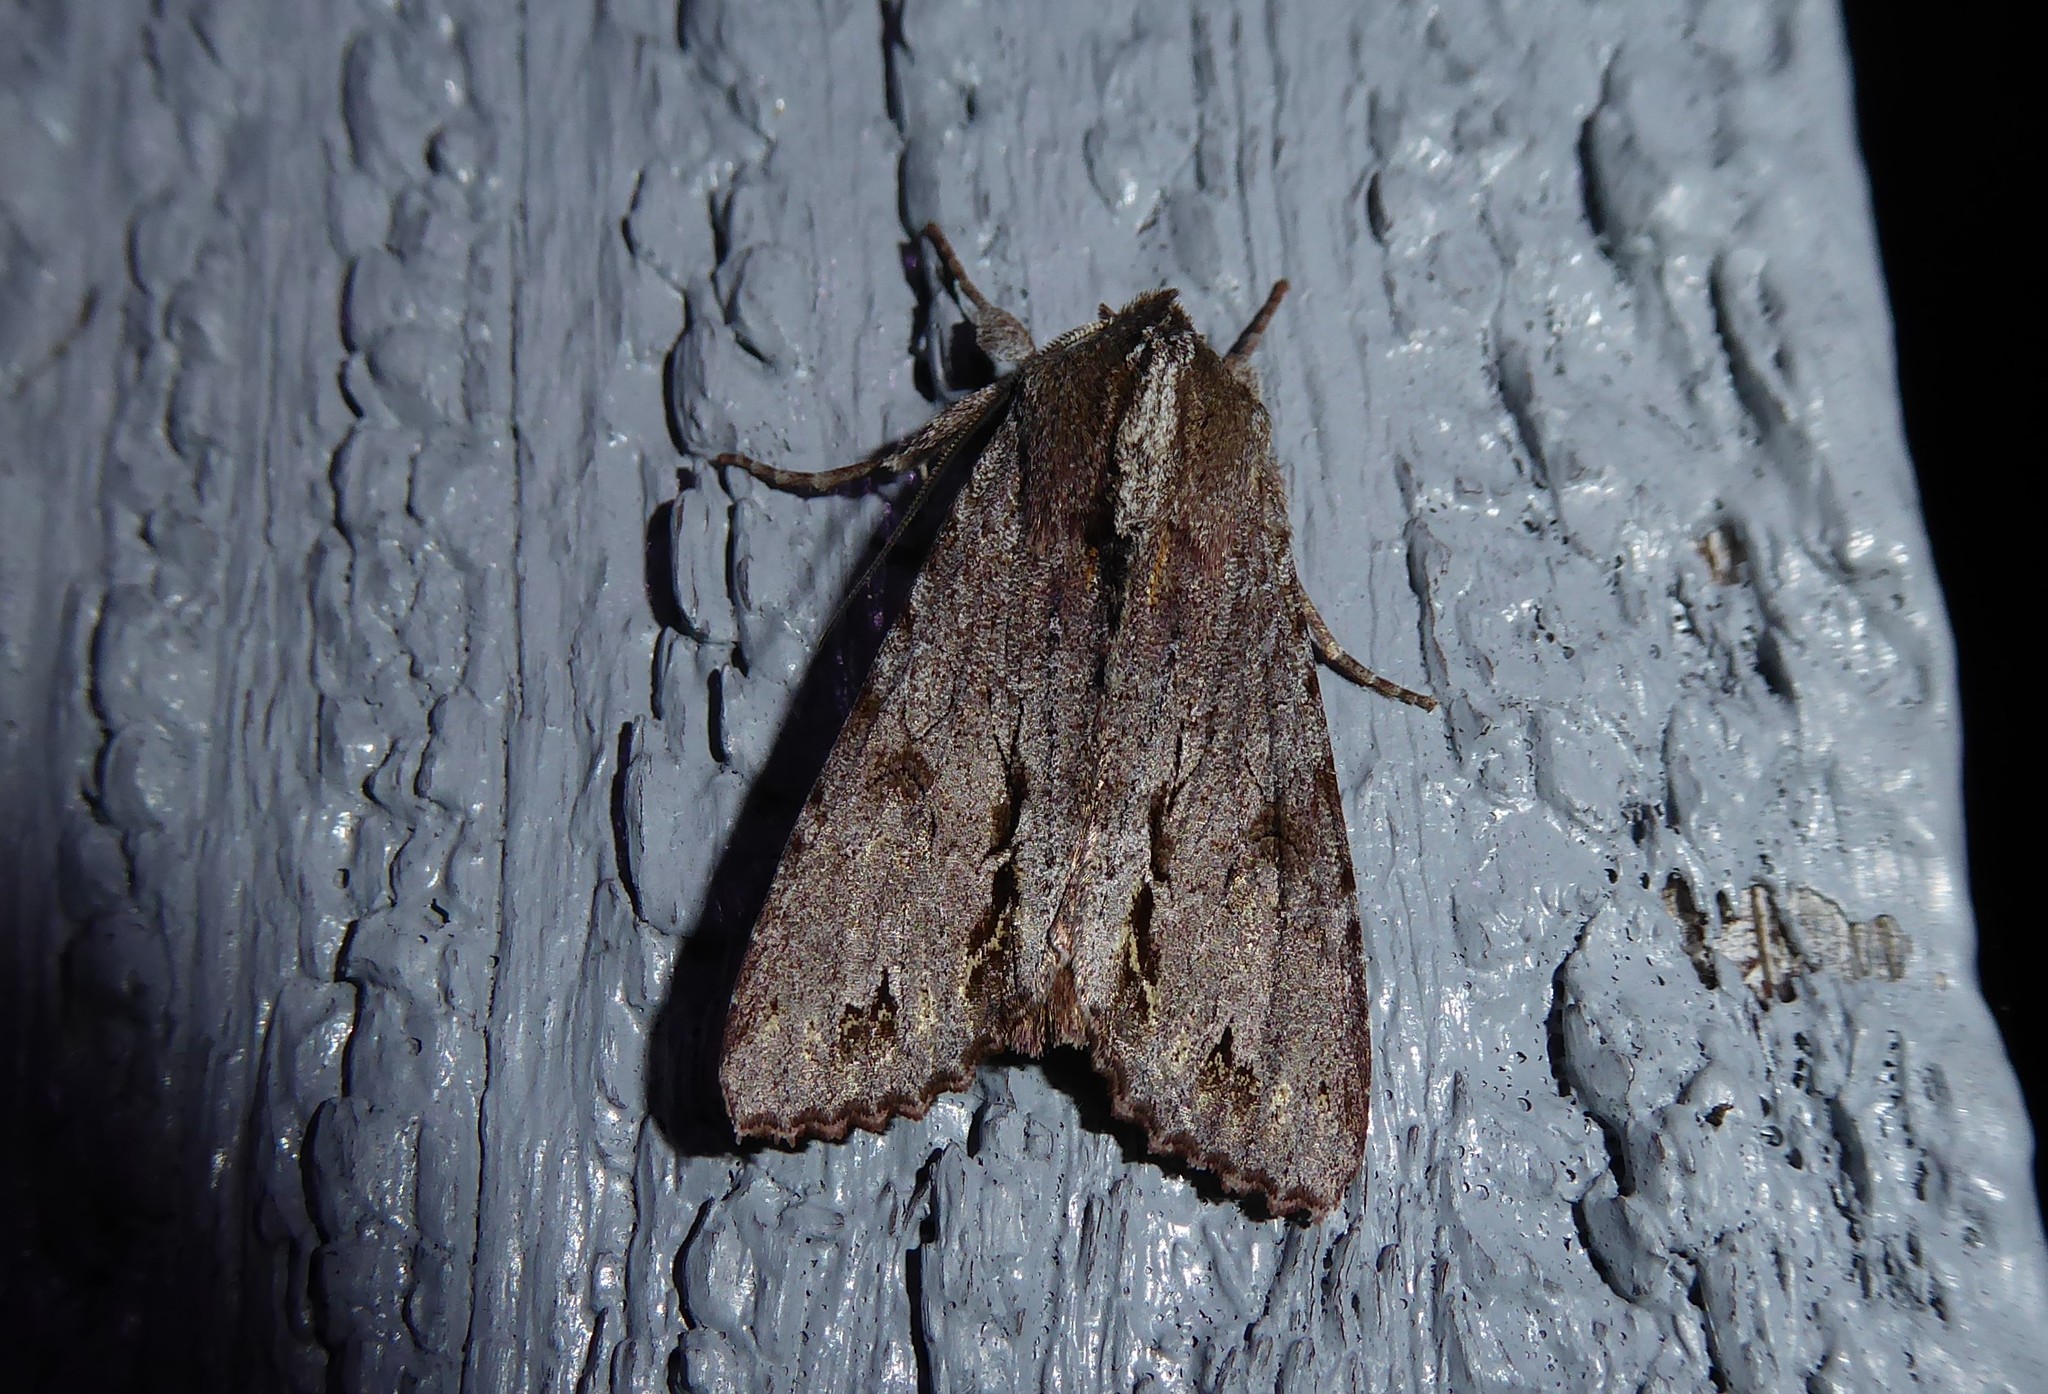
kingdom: Animalia
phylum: Arthropoda
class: Insecta
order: Lepidoptera
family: Noctuidae
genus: Ichneutica
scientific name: Ichneutica
